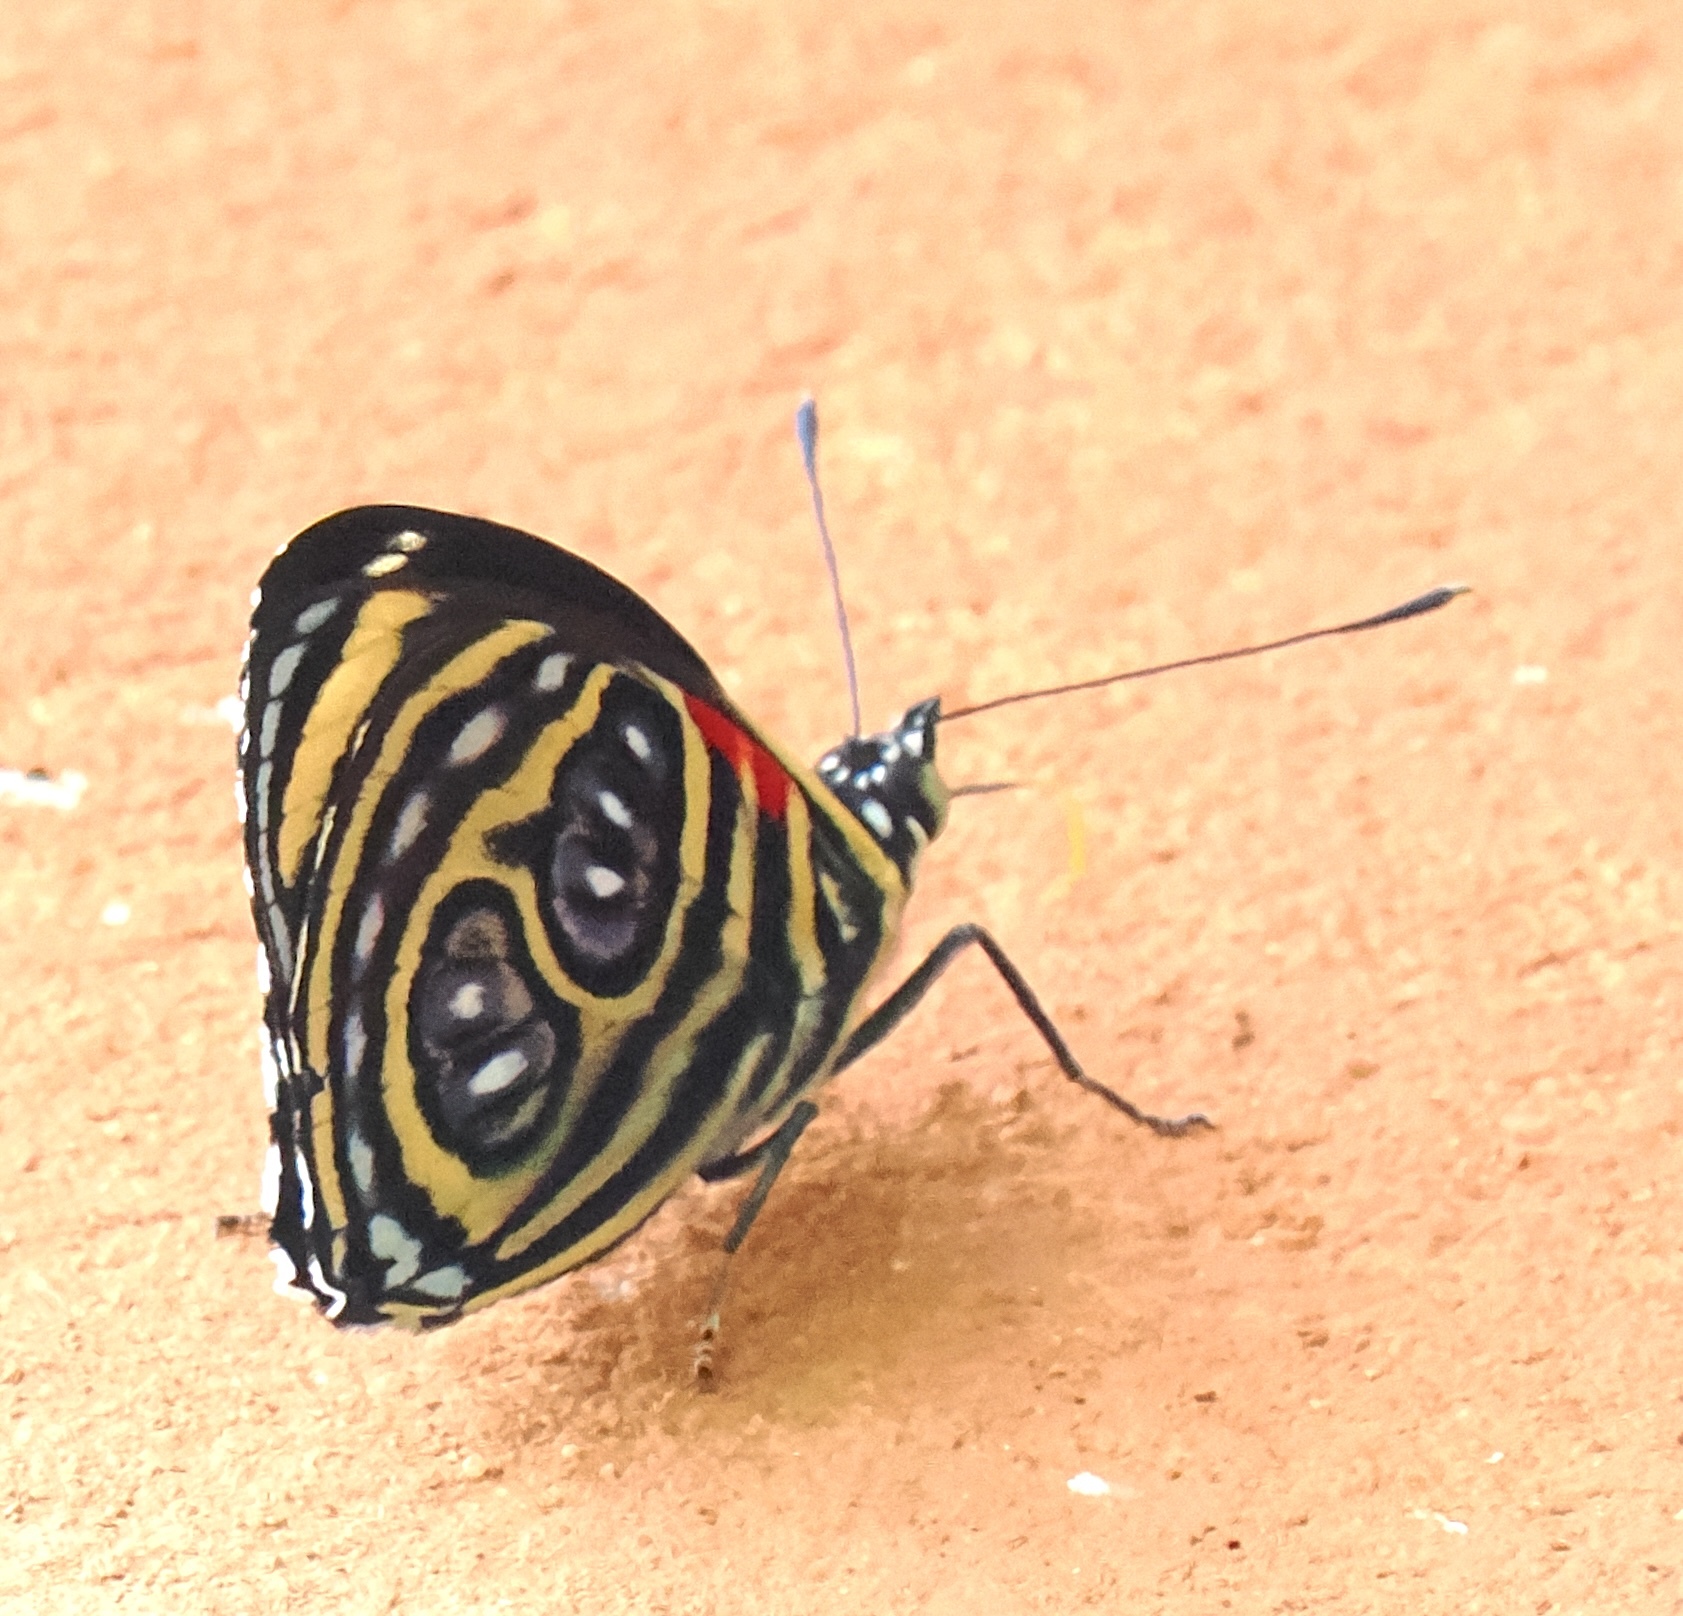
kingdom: Animalia
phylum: Arthropoda
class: Insecta
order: Lepidoptera
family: Nymphalidae
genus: Catagramma
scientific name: Catagramma pygas
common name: Godart's numberwing
